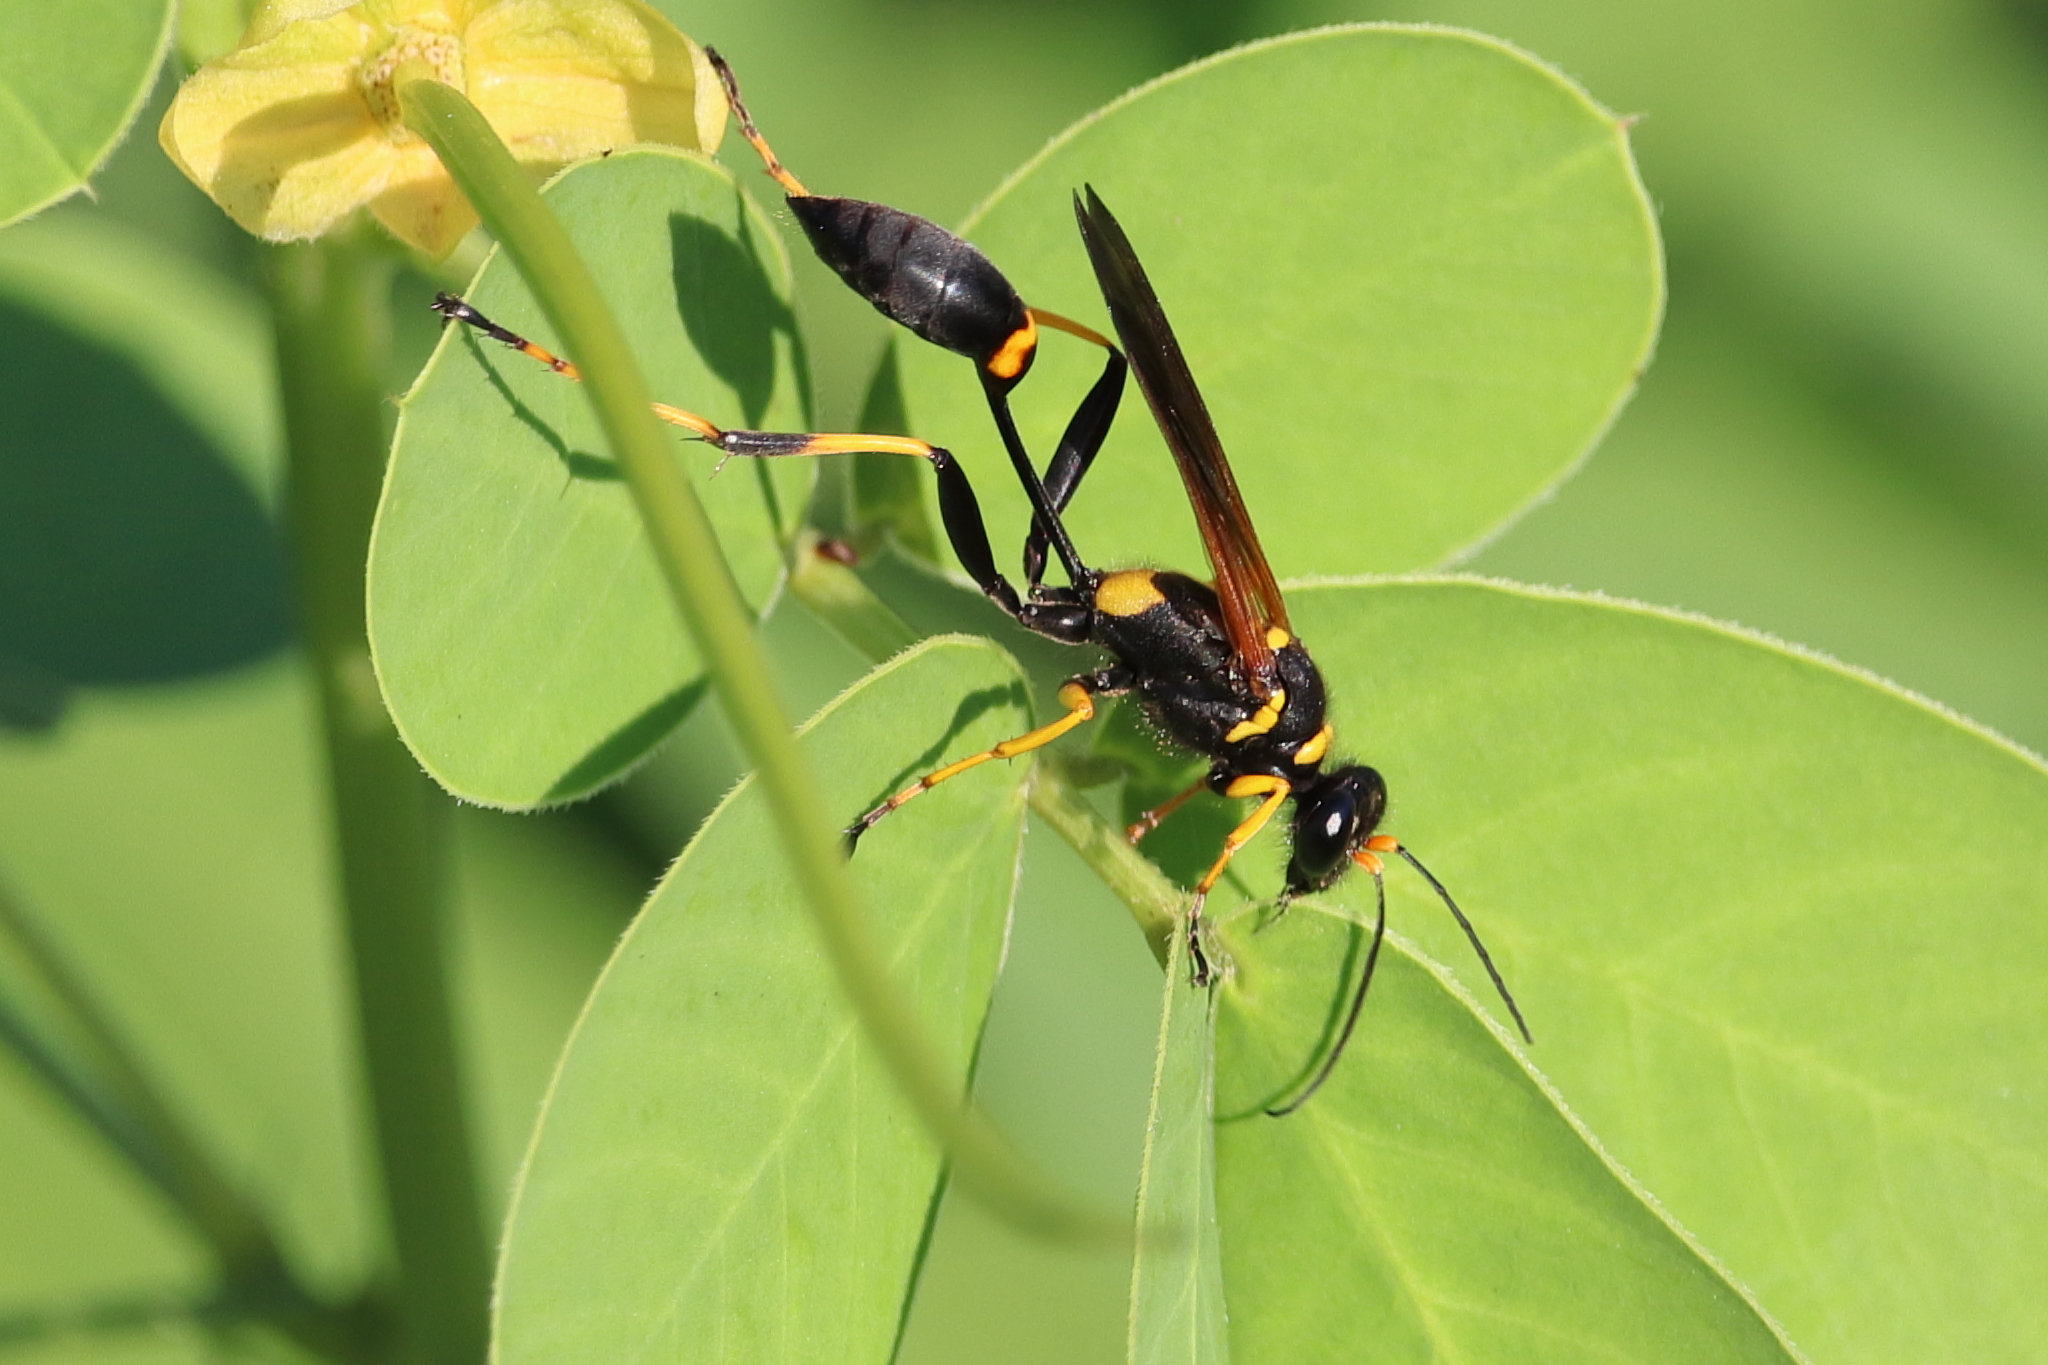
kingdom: Animalia
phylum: Arthropoda
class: Insecta
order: Hymenoptera
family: Sphecidae
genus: Sceliphron
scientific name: Sceliphron caementarium
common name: Mud dauber
